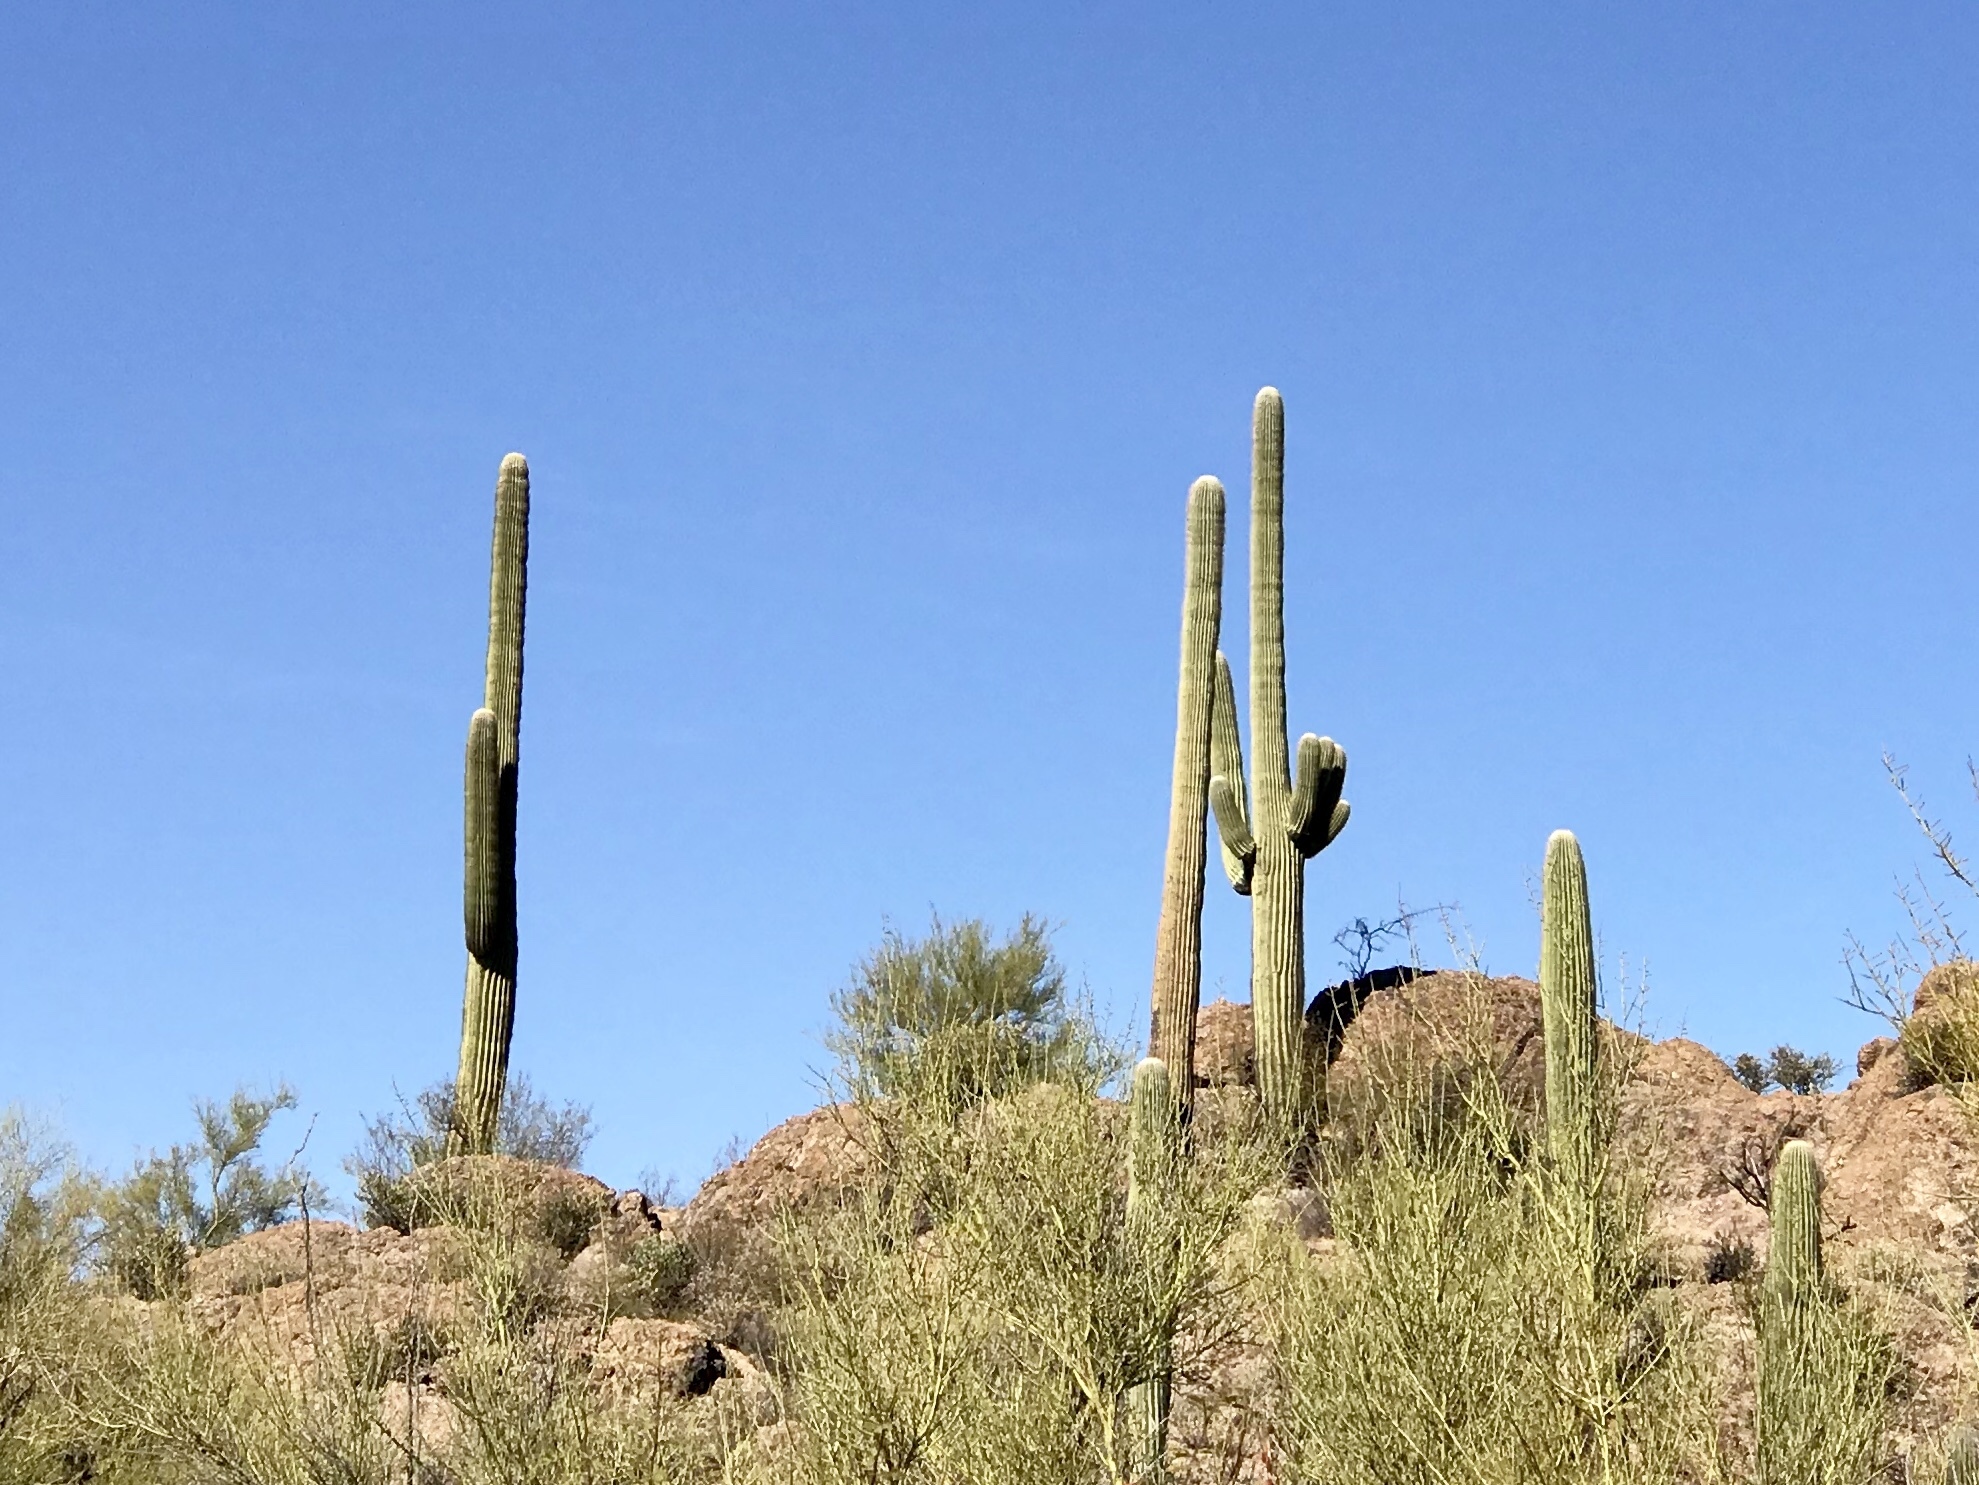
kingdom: Plantae
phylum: Tracheophyta
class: Magnoliopsida
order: Caryophyllales
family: Cactaceae
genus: Carnegiea
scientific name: Carnegiea gigantea
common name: Saguaro
